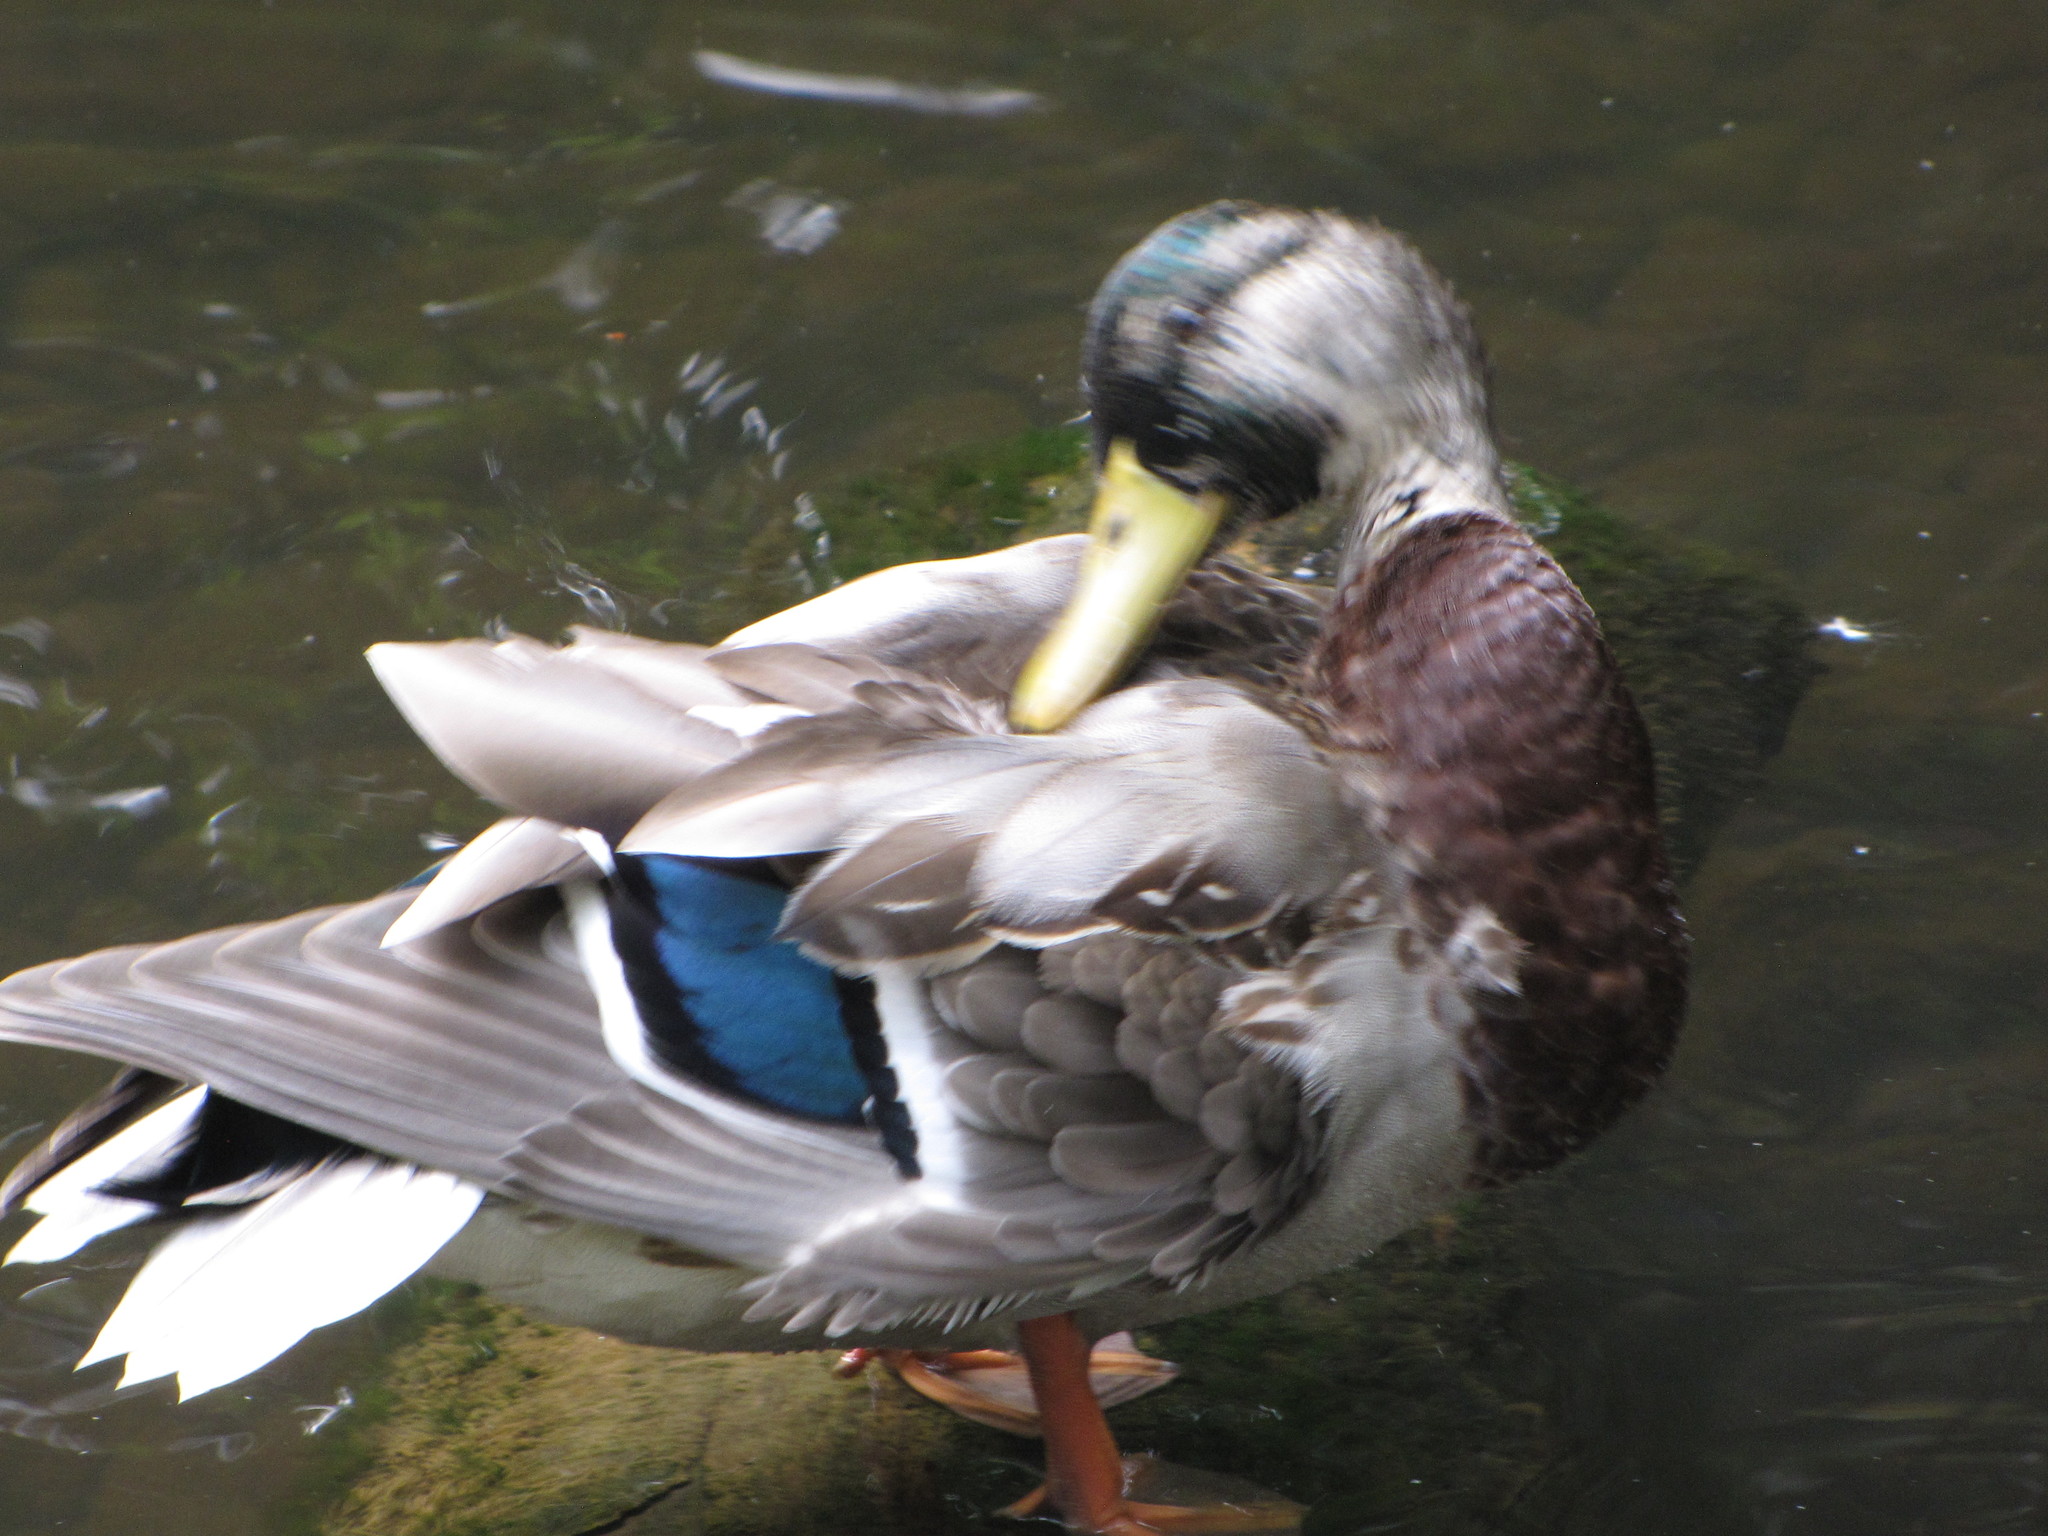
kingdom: Animalia
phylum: Chordata
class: Aves
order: Anseriformes
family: Anatidae
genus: Anas
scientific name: Anas platyrhynchos
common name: Mallard
